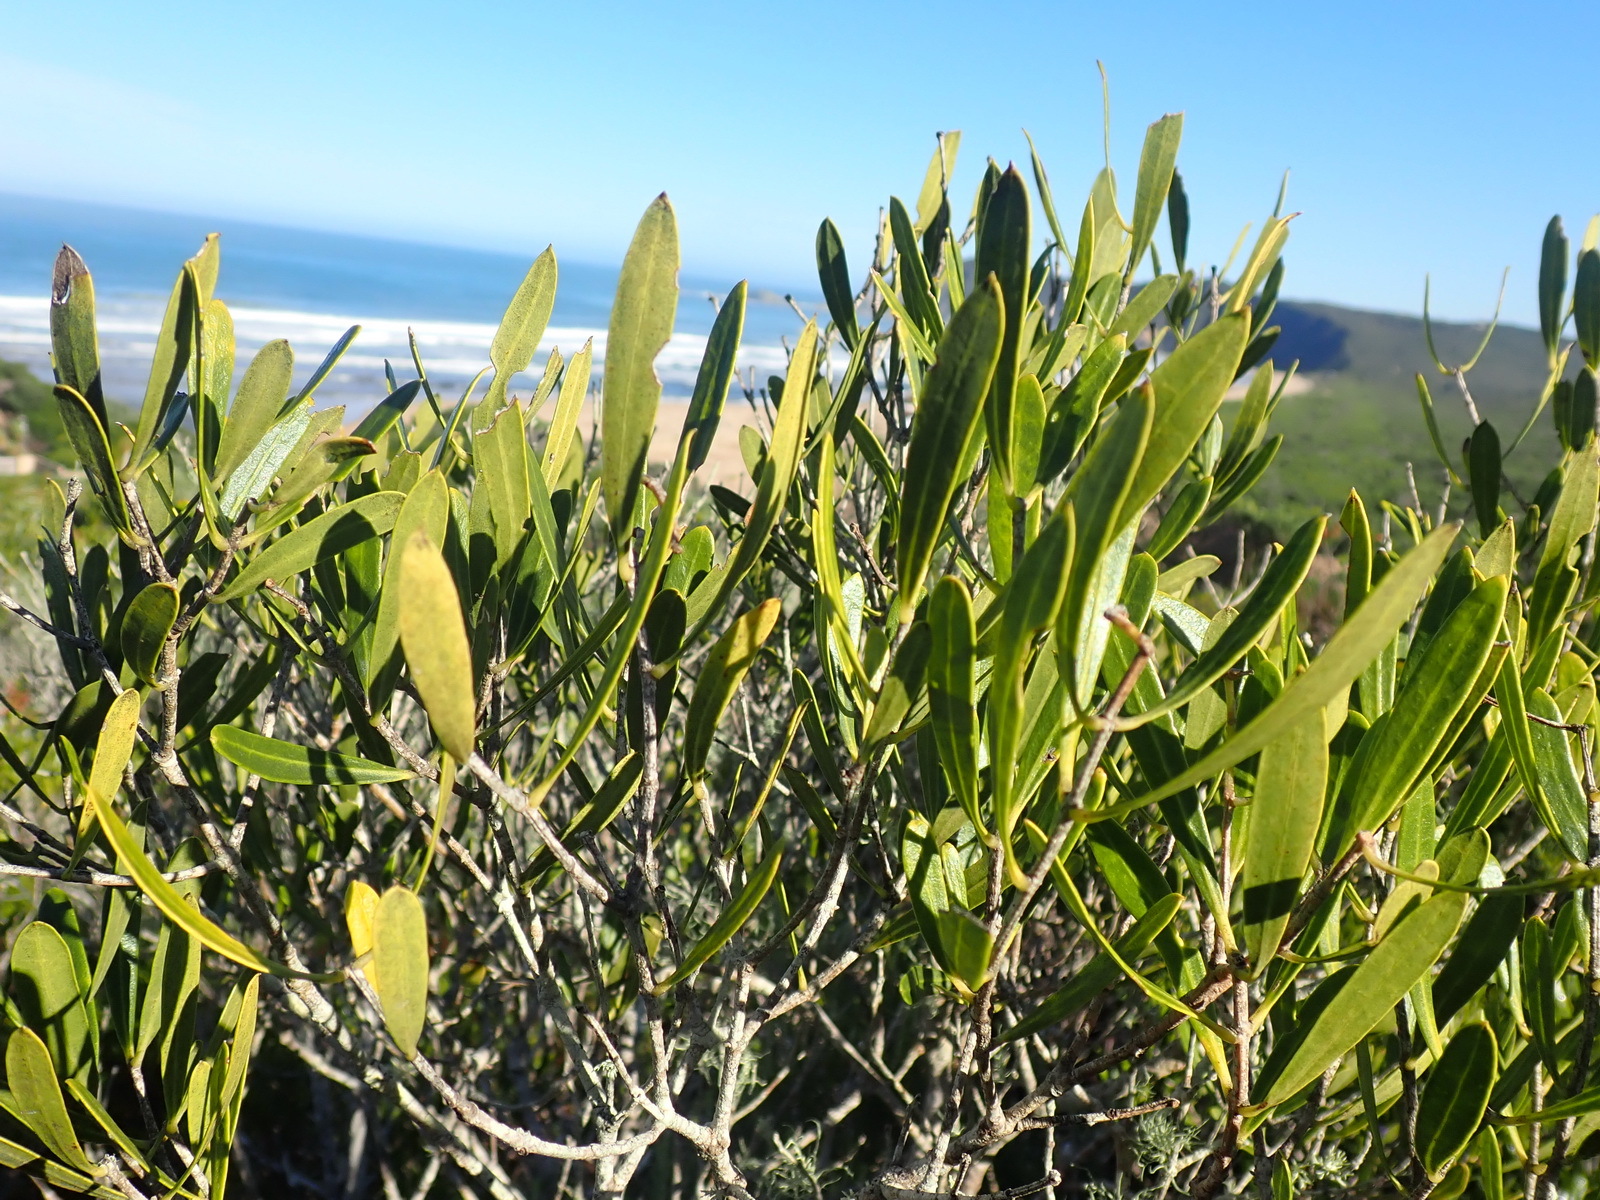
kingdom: Plantae
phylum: Tracheophyta
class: Magnoliopsida
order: Lamiales
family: Oleaceae
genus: Olea
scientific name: Olea exasperata
